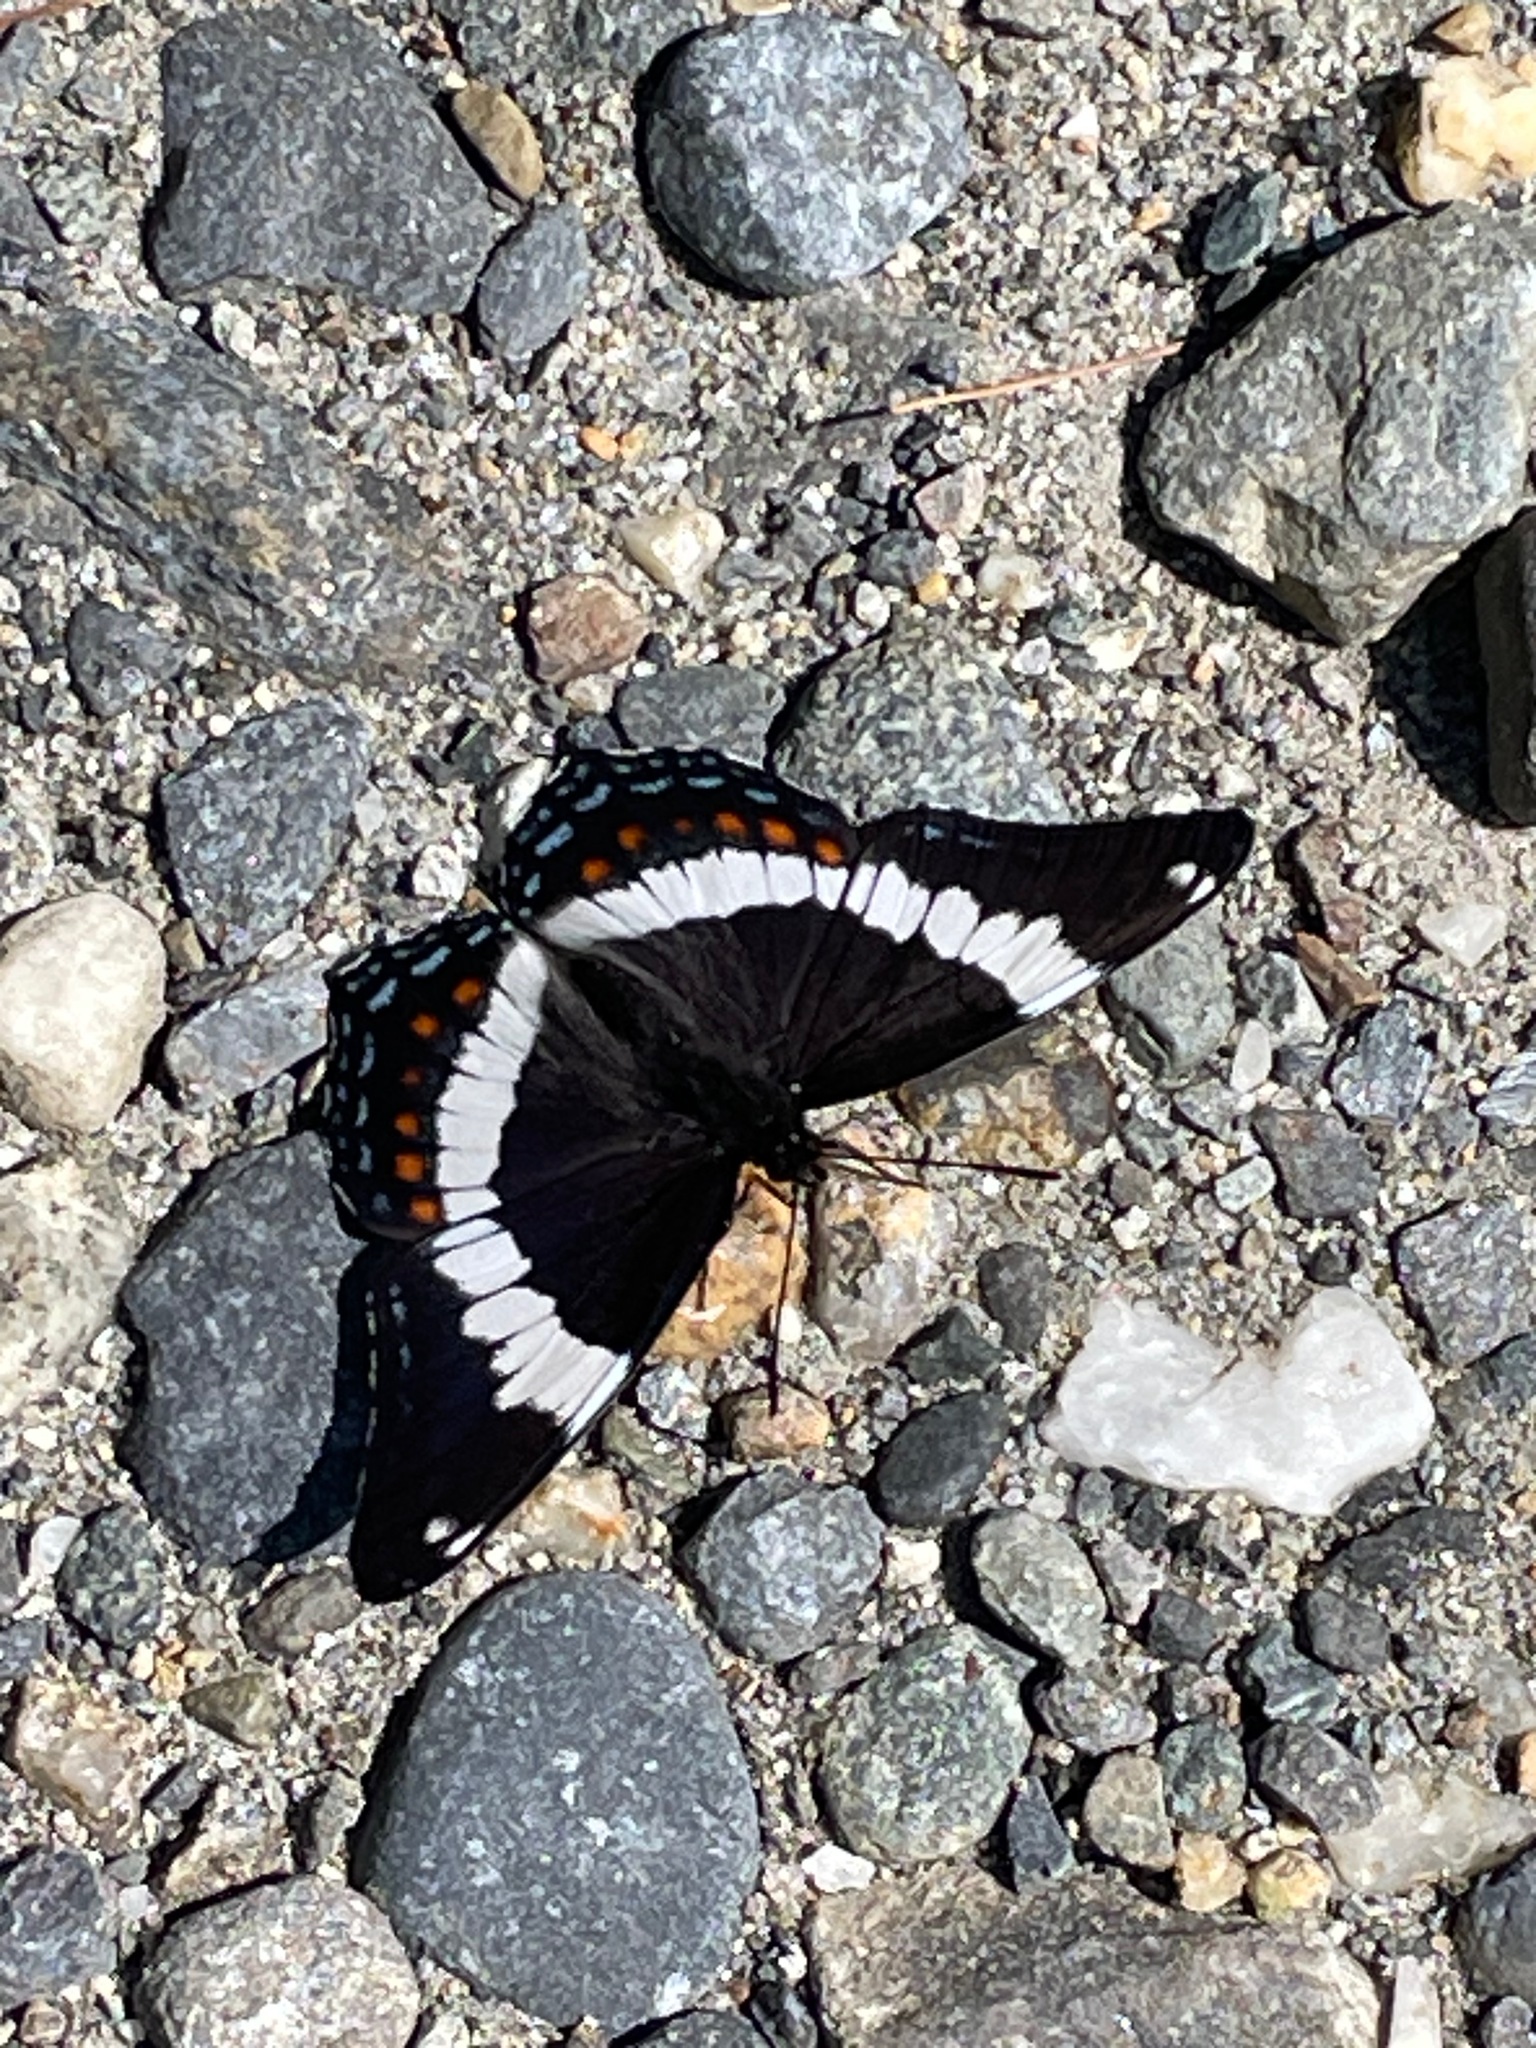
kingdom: Animalia
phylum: Arthropoda
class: Insecta
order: Lepidoptera
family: Nymphalidae
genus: Limenitis
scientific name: Limenitis arthemis
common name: Red-spotted admiral
